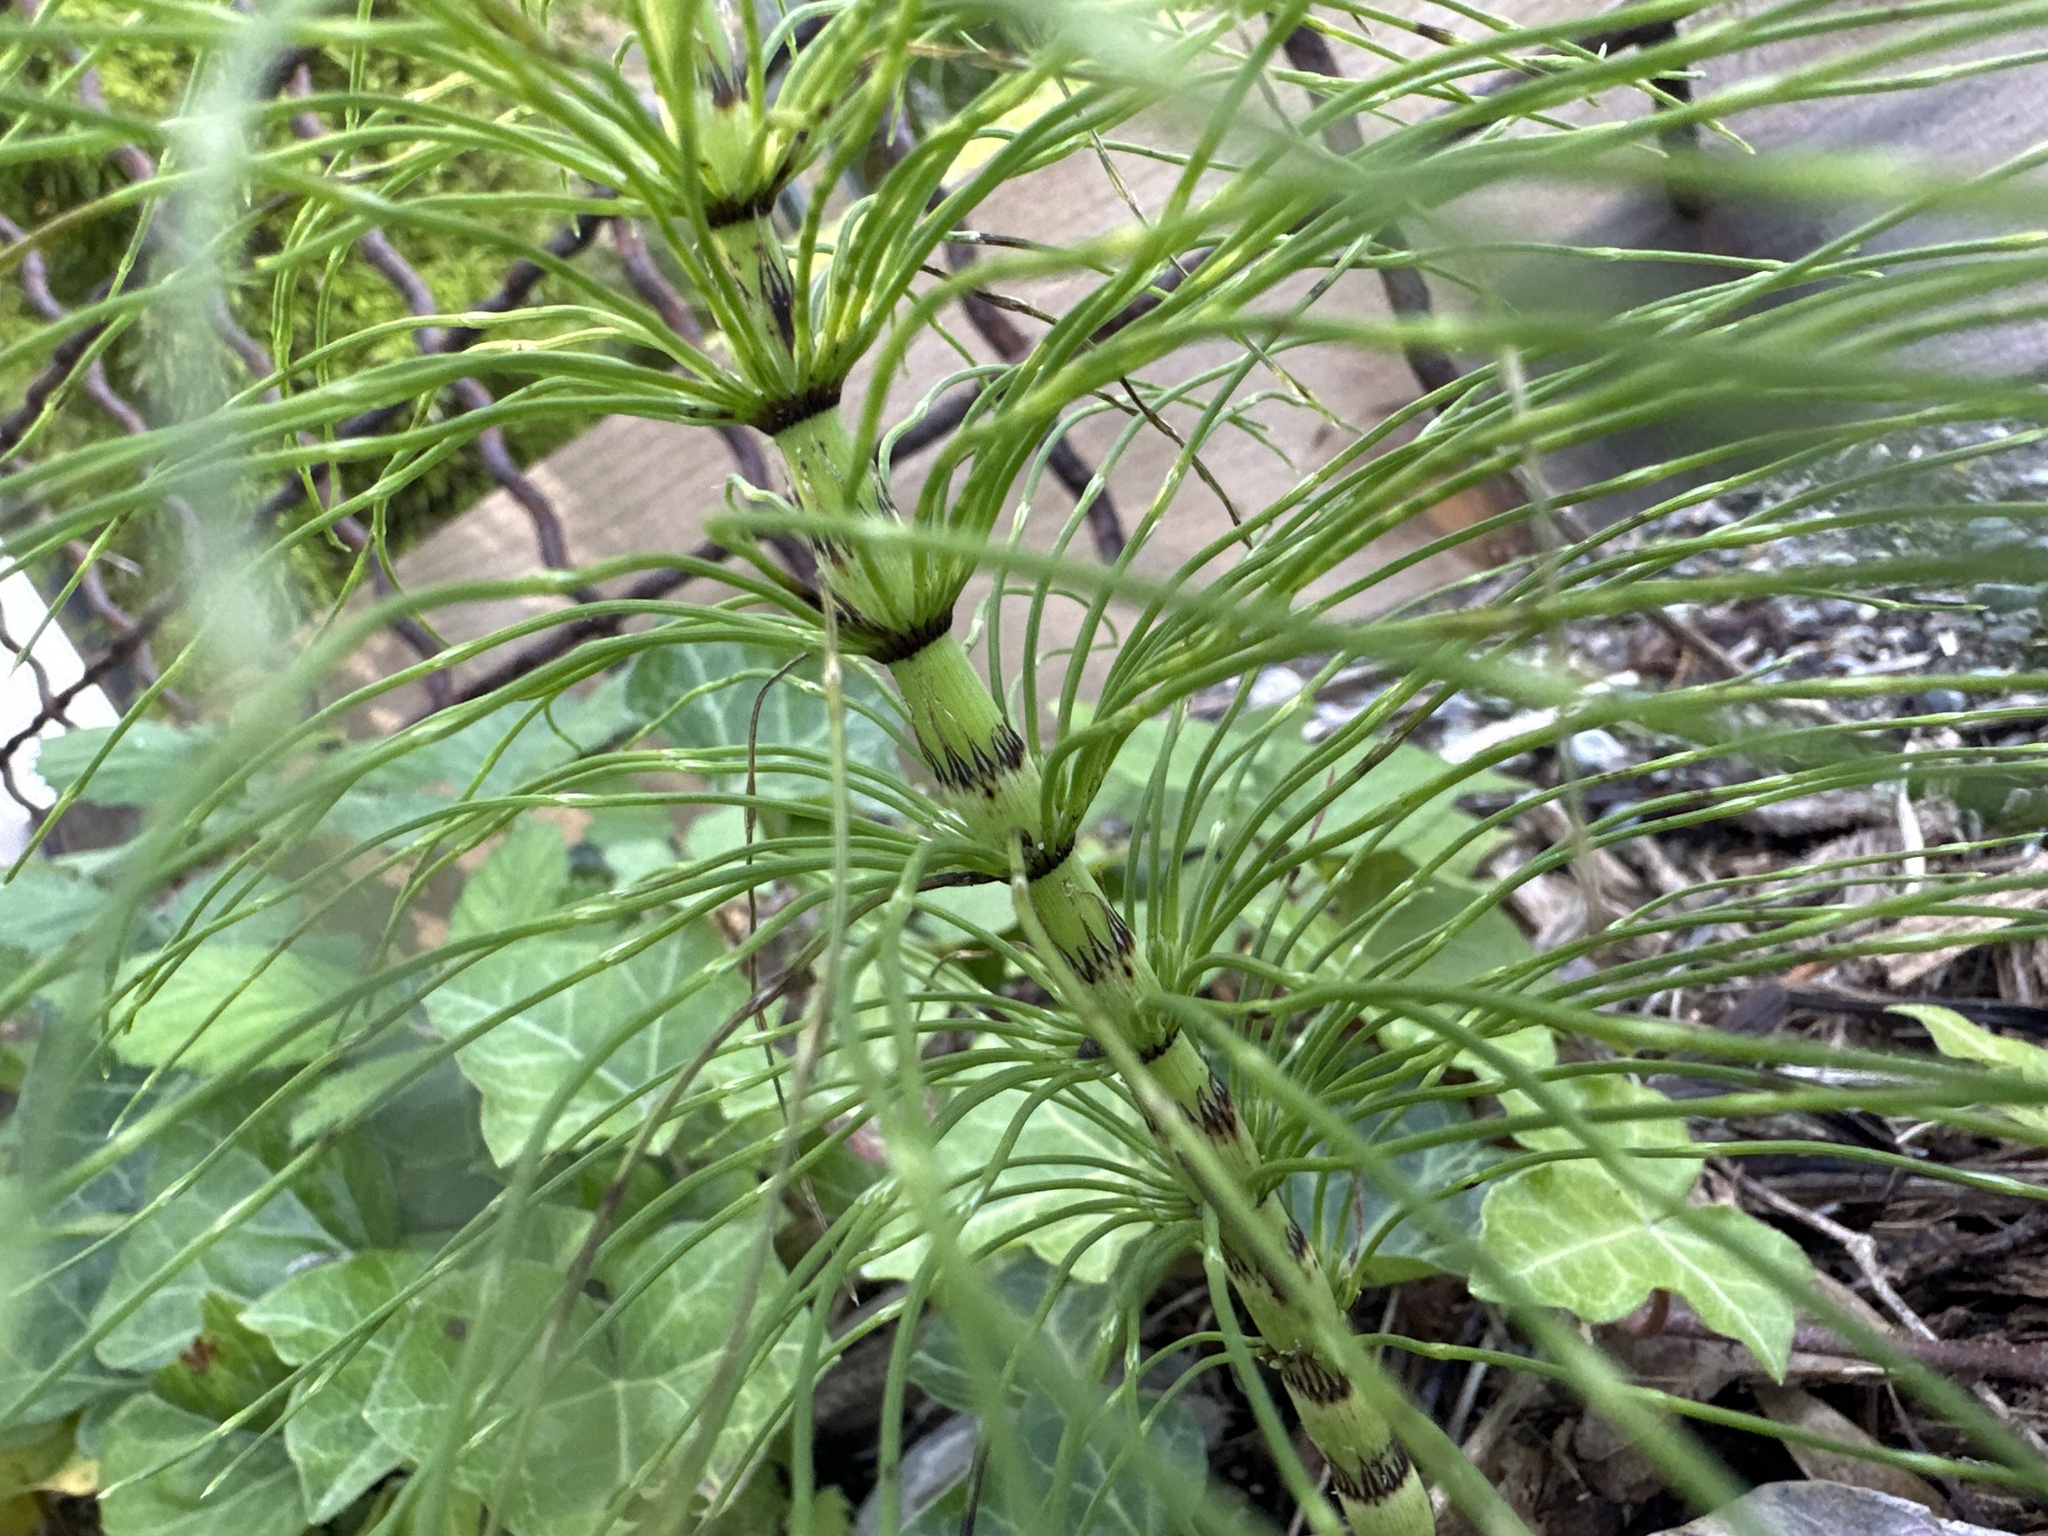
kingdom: Plantae
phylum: Tracheophyta
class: Polypodiopsida
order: Equisetales
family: Equisetaceae
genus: Equisetum
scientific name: Equisetum telmateia
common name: Great horsetail
